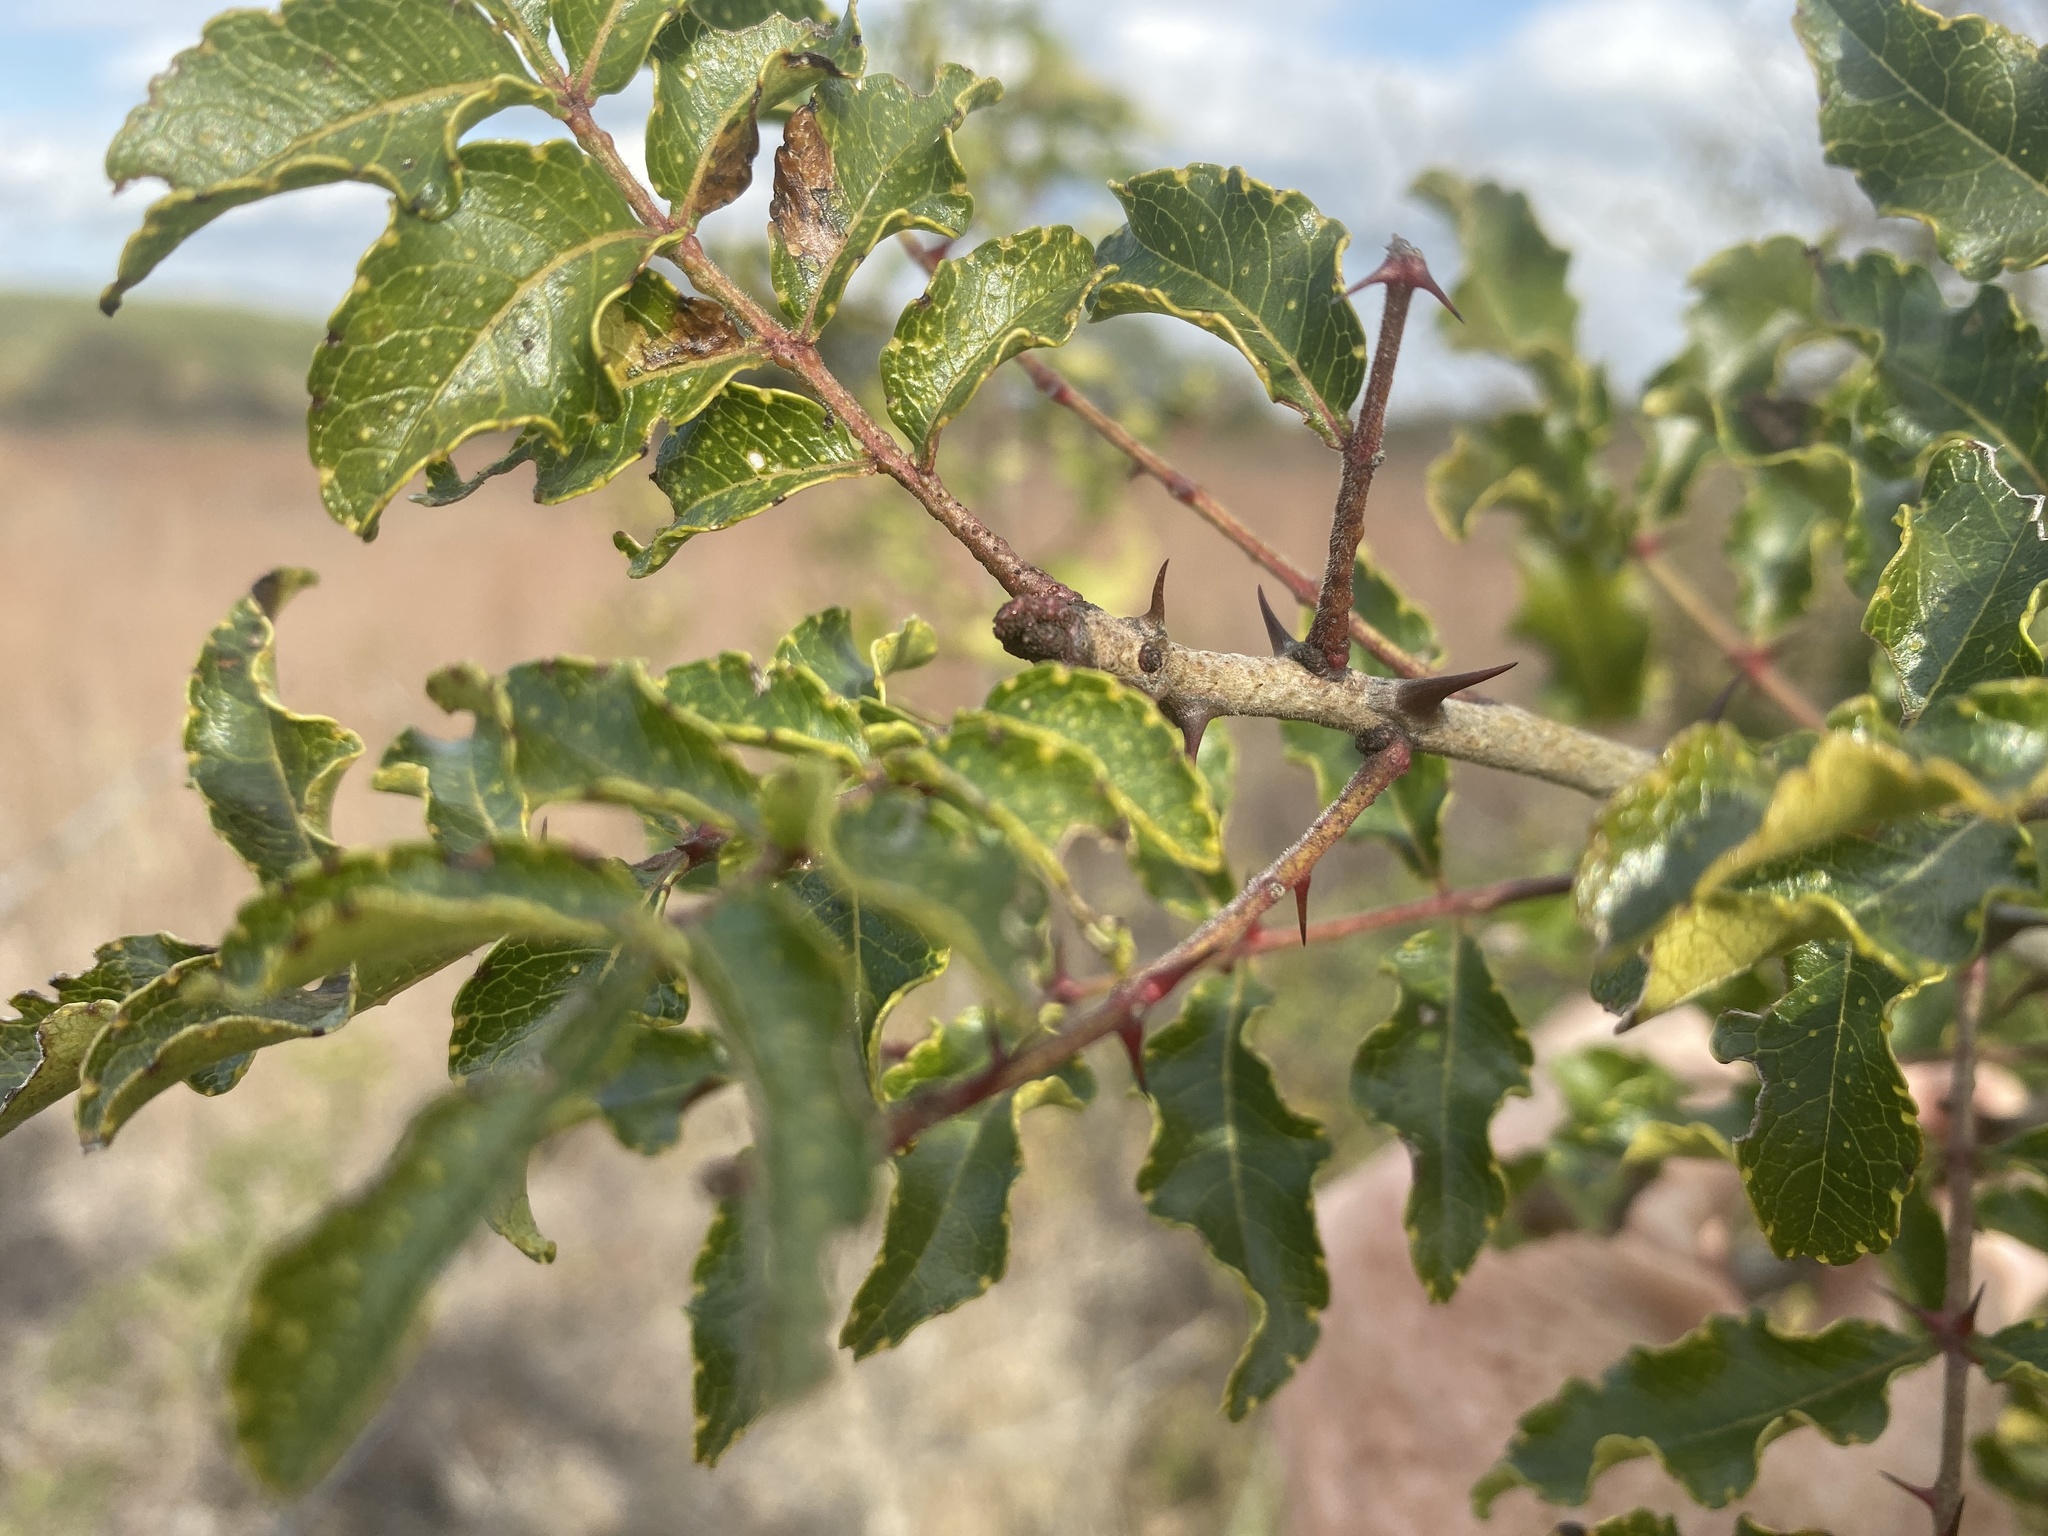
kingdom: Plantae
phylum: Tracheophyta
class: Magnoliopsida
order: Sapindales
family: Rutaceae
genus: Zanthoxylum
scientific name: Zanthoxylum clava-herculis
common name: Hercules'-club
